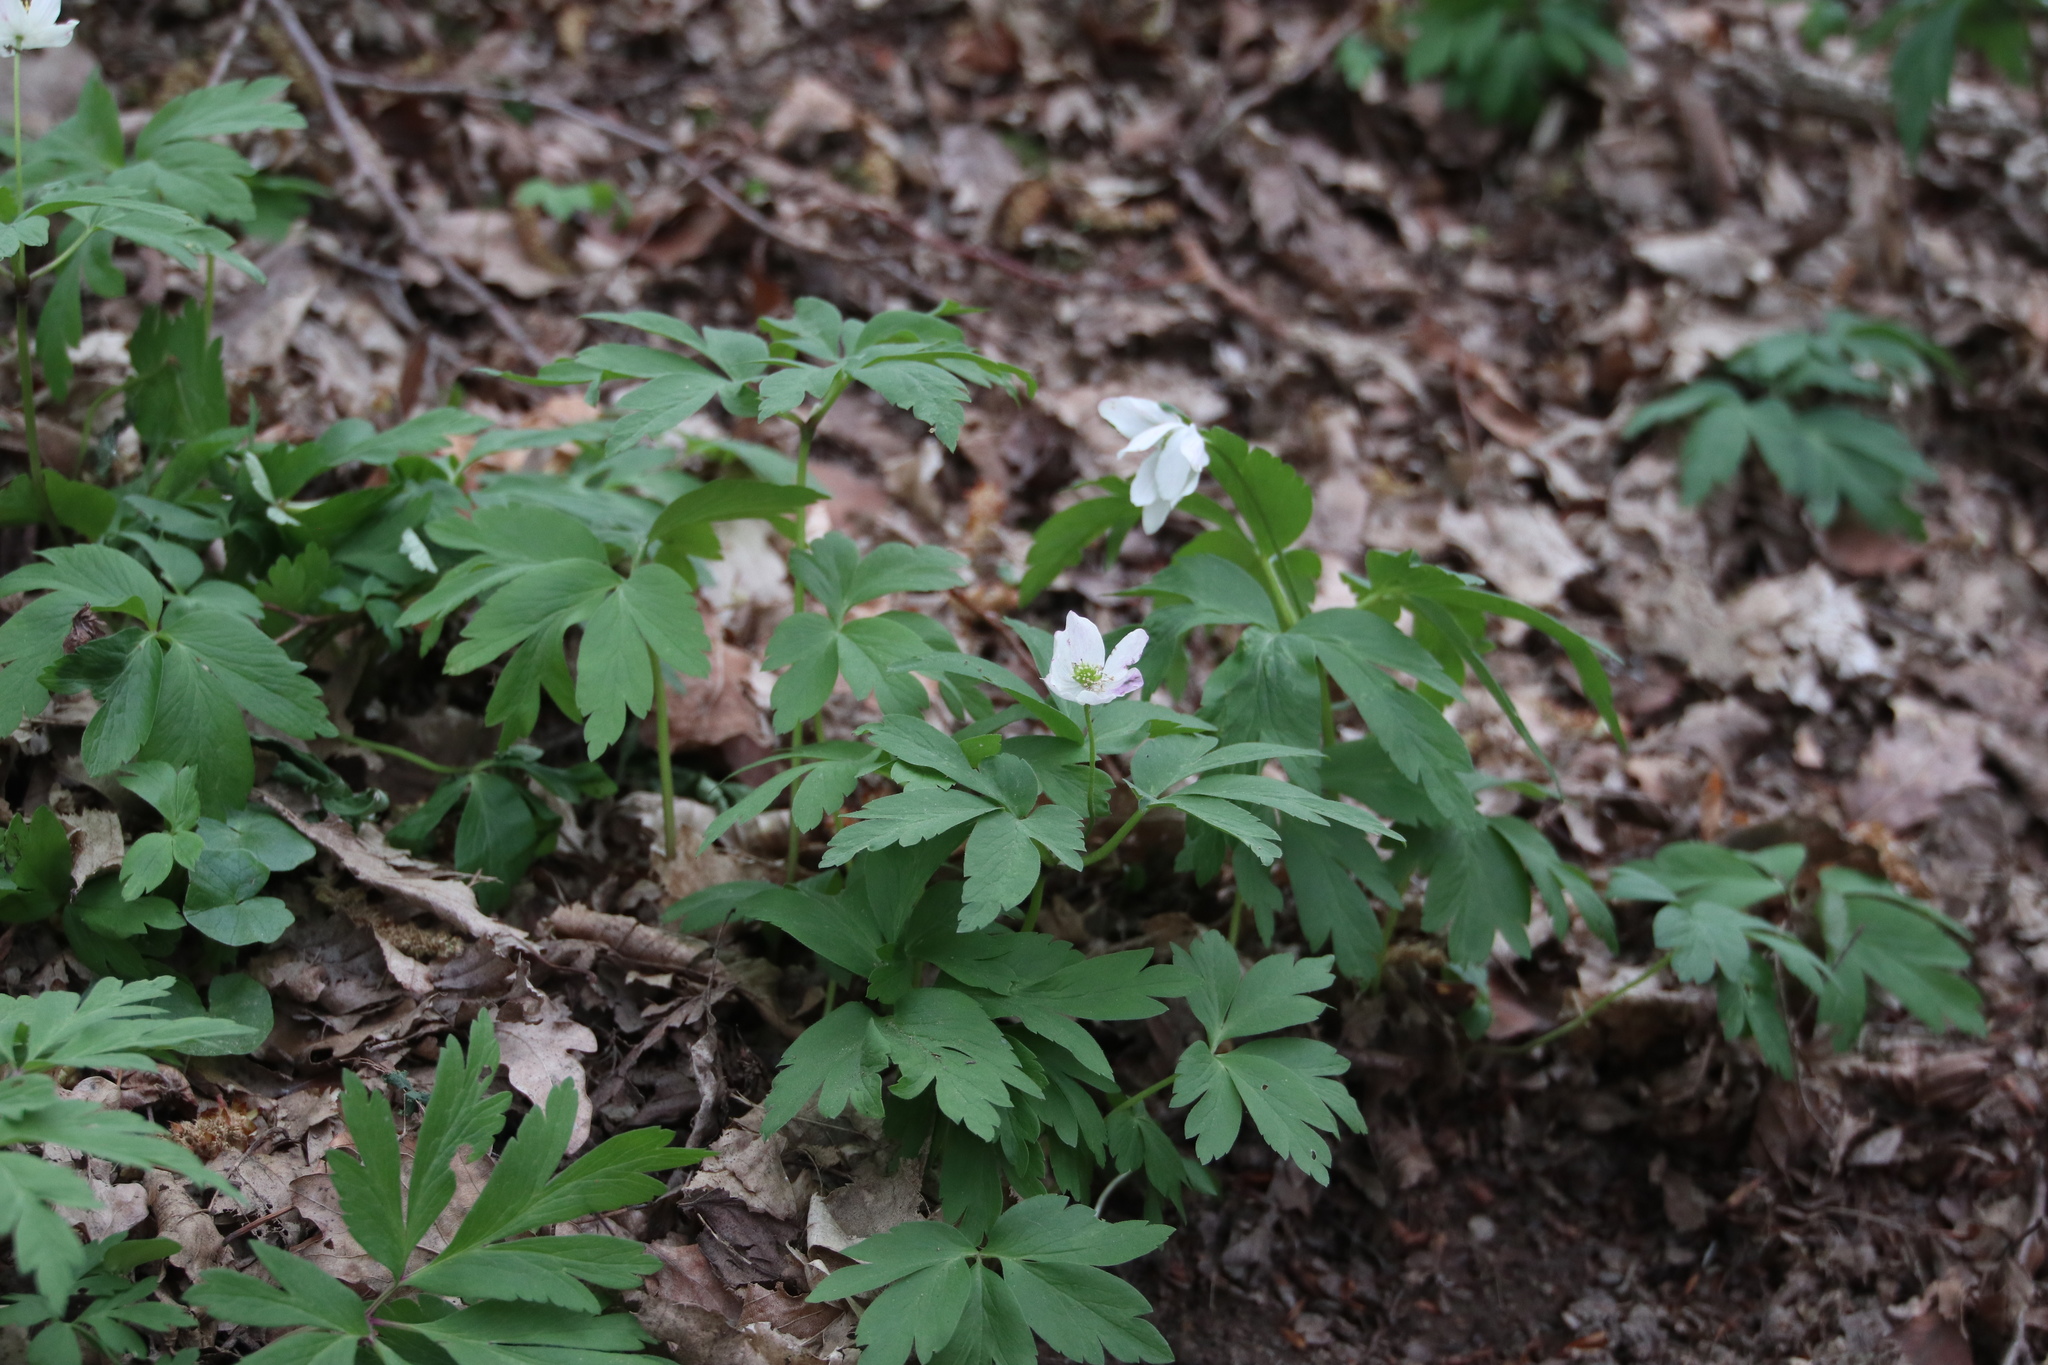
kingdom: Plantae
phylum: Tracheophyta
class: Magnoliopsida
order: Ranunculales
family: Ranunculaceae
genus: Anemone
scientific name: Anemone nemorosa
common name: Wood anemone
